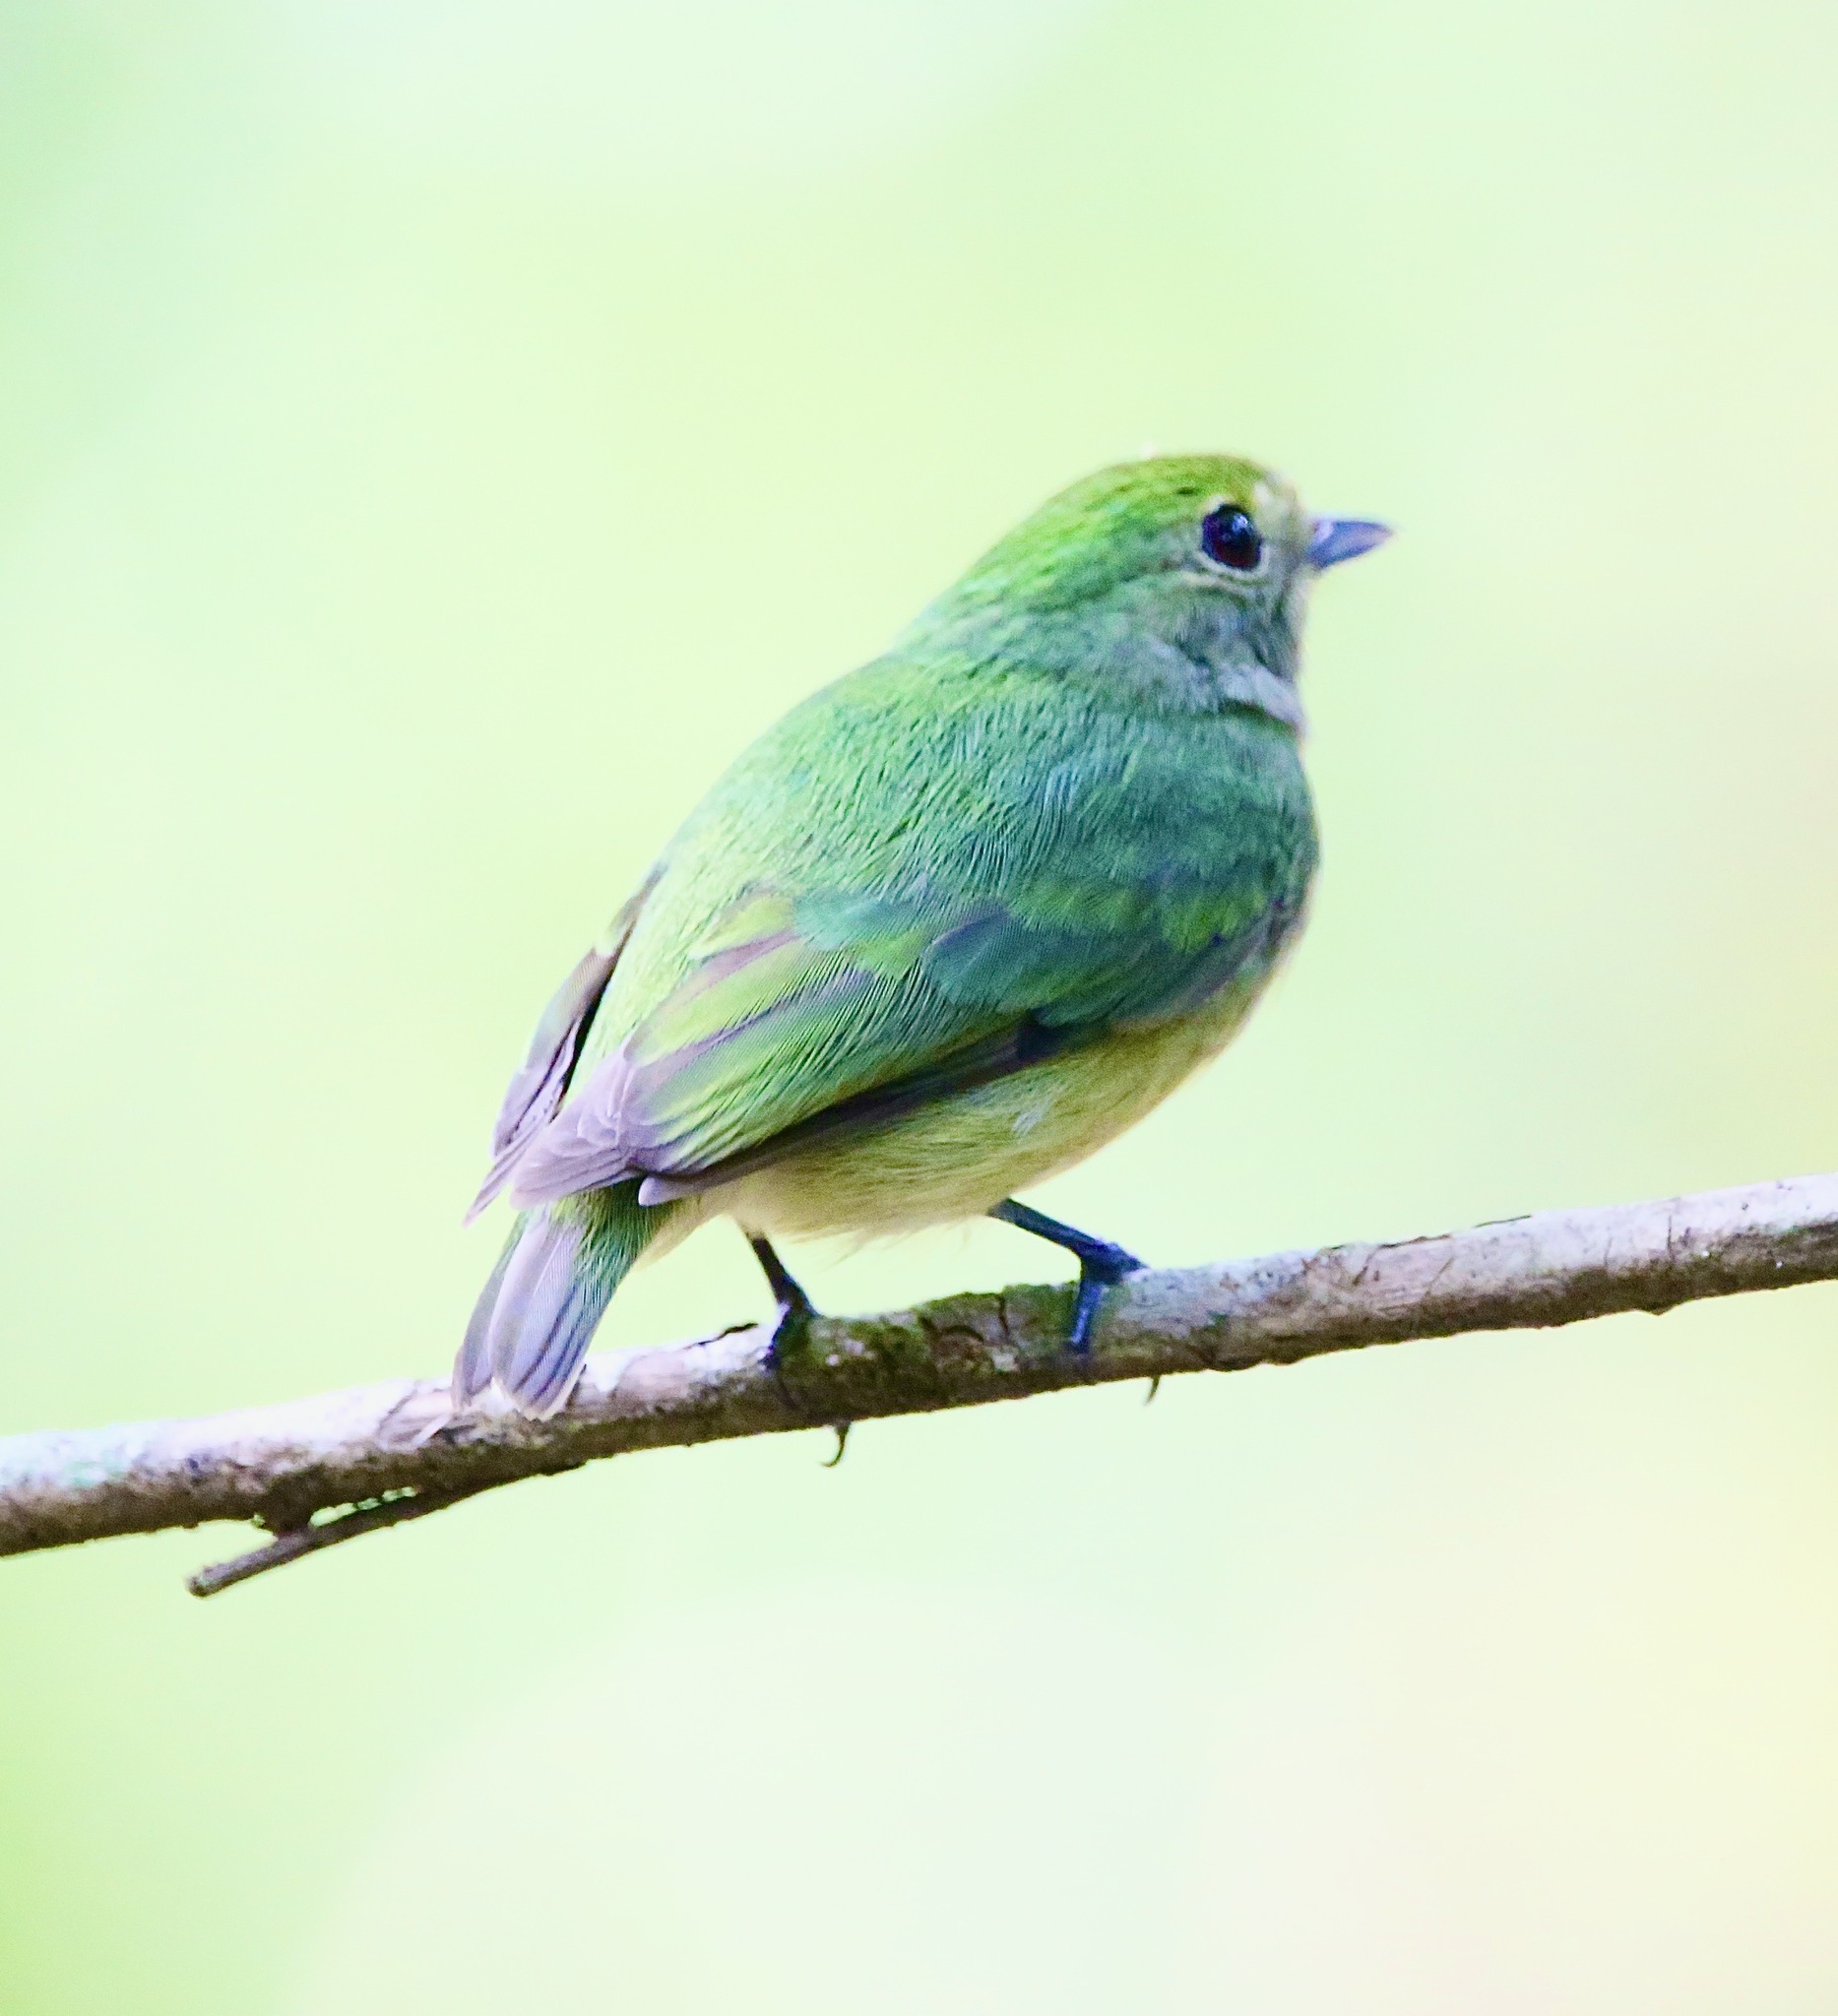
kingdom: Animalia
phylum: Chordata
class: Aves
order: Passeriformes
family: Pipridae
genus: Lepidothrix
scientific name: Lepidothrix coronata
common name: Blue-crowned manakin
